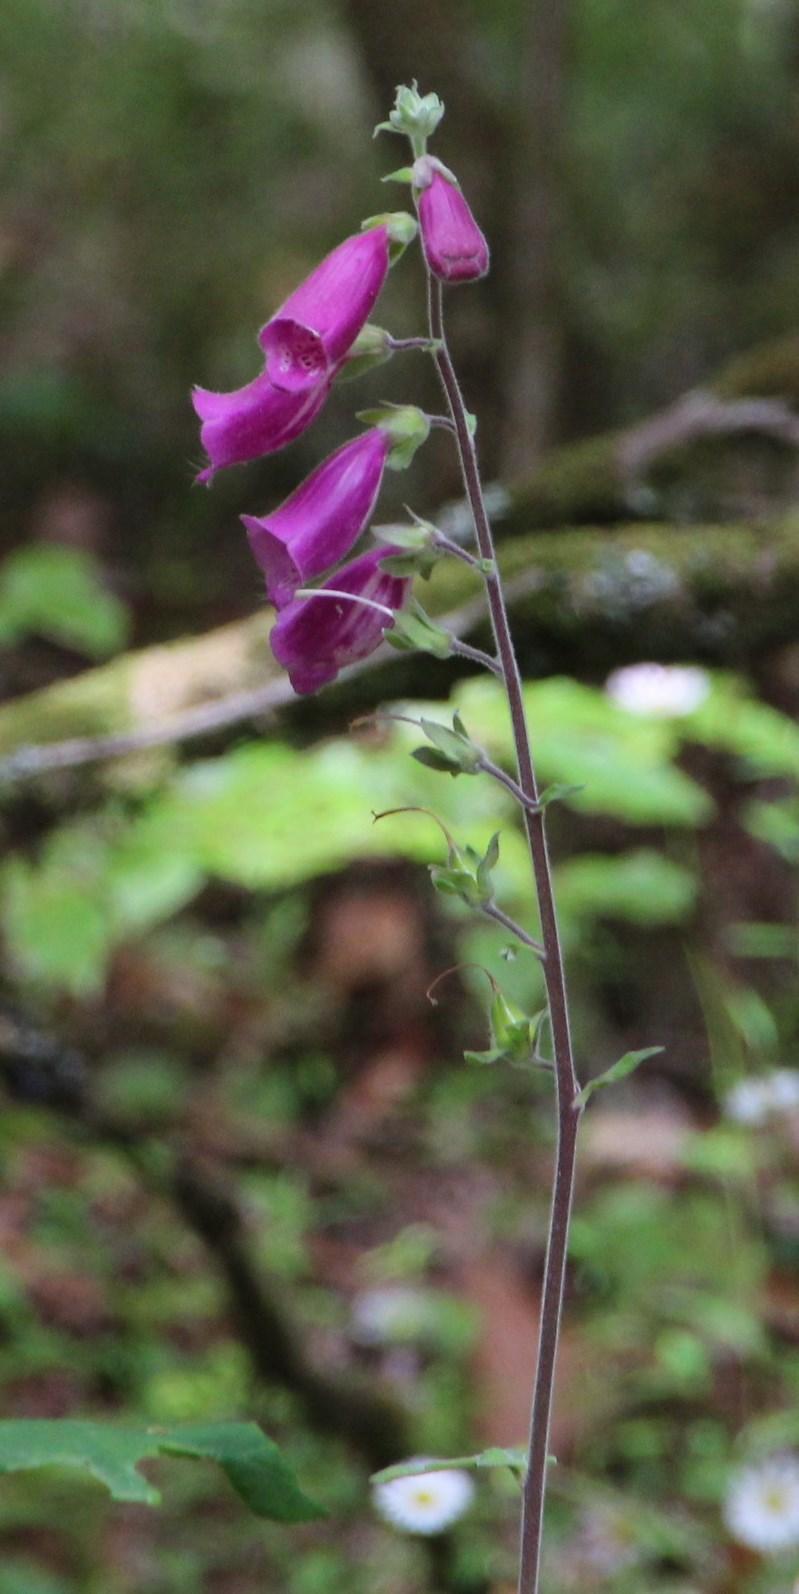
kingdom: Plantae
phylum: Tracheophyta
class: Magnoliopsida
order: Lamiales
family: Plantaginaceae
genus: Digitalis
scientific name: Digitalis purpurea
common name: Foxglove
